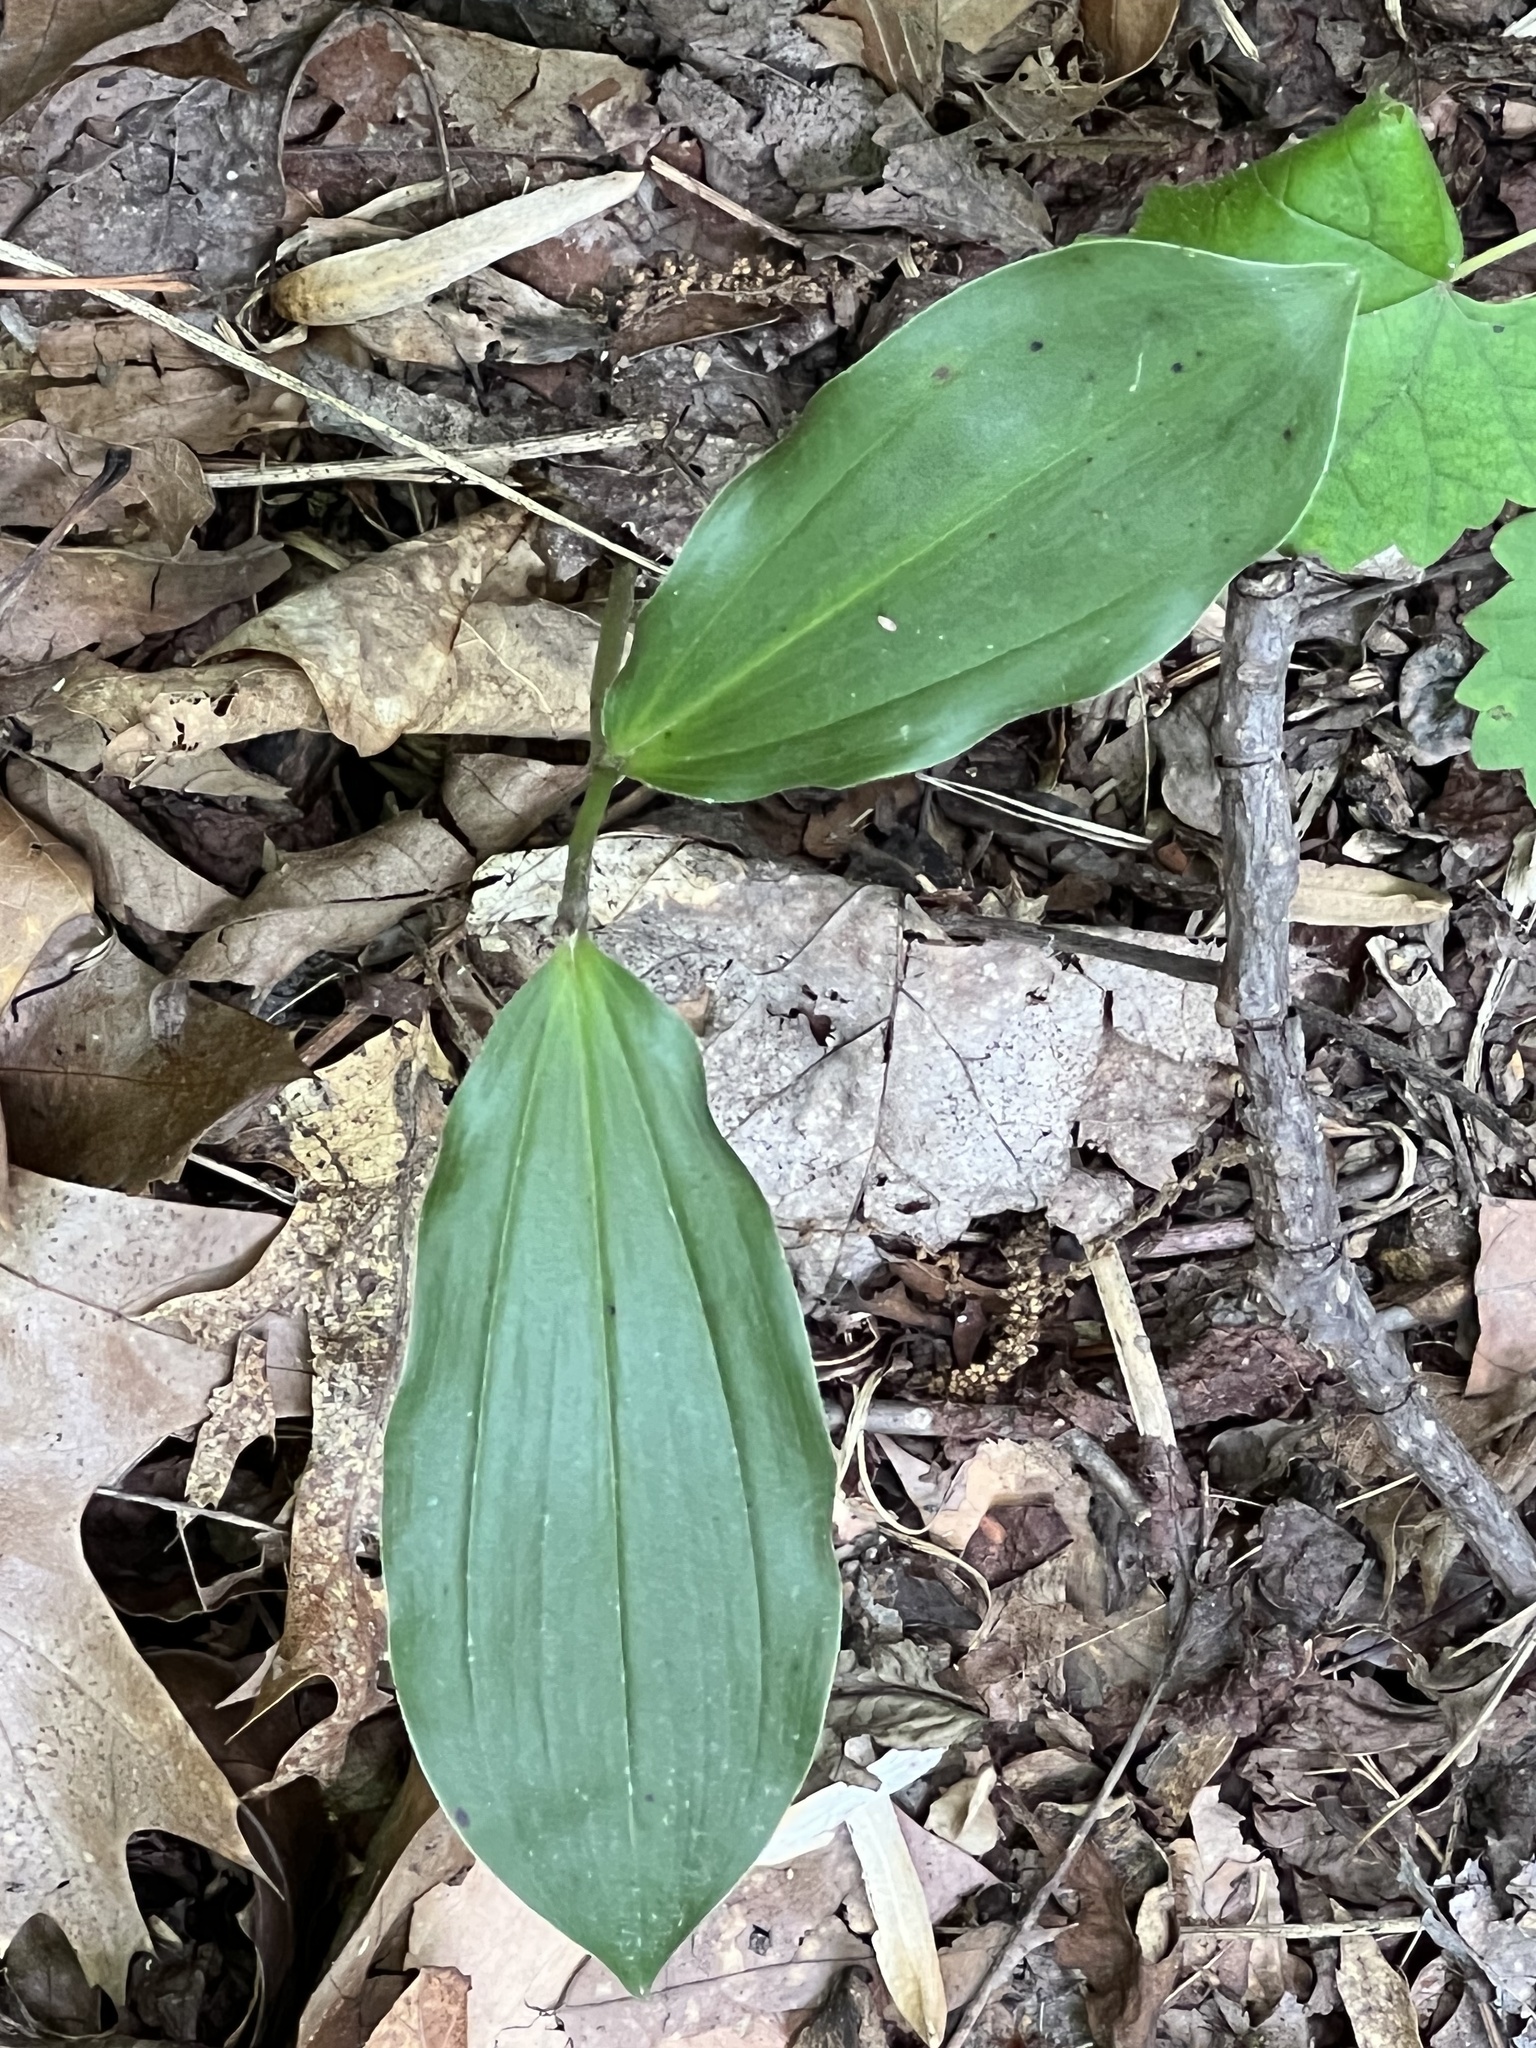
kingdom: Plantae
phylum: Tracheophyta
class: Liliopsida
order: Asparagales
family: Asparagaceae
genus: Maianthemum
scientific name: Maianthemum racemosum
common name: False spikenard
